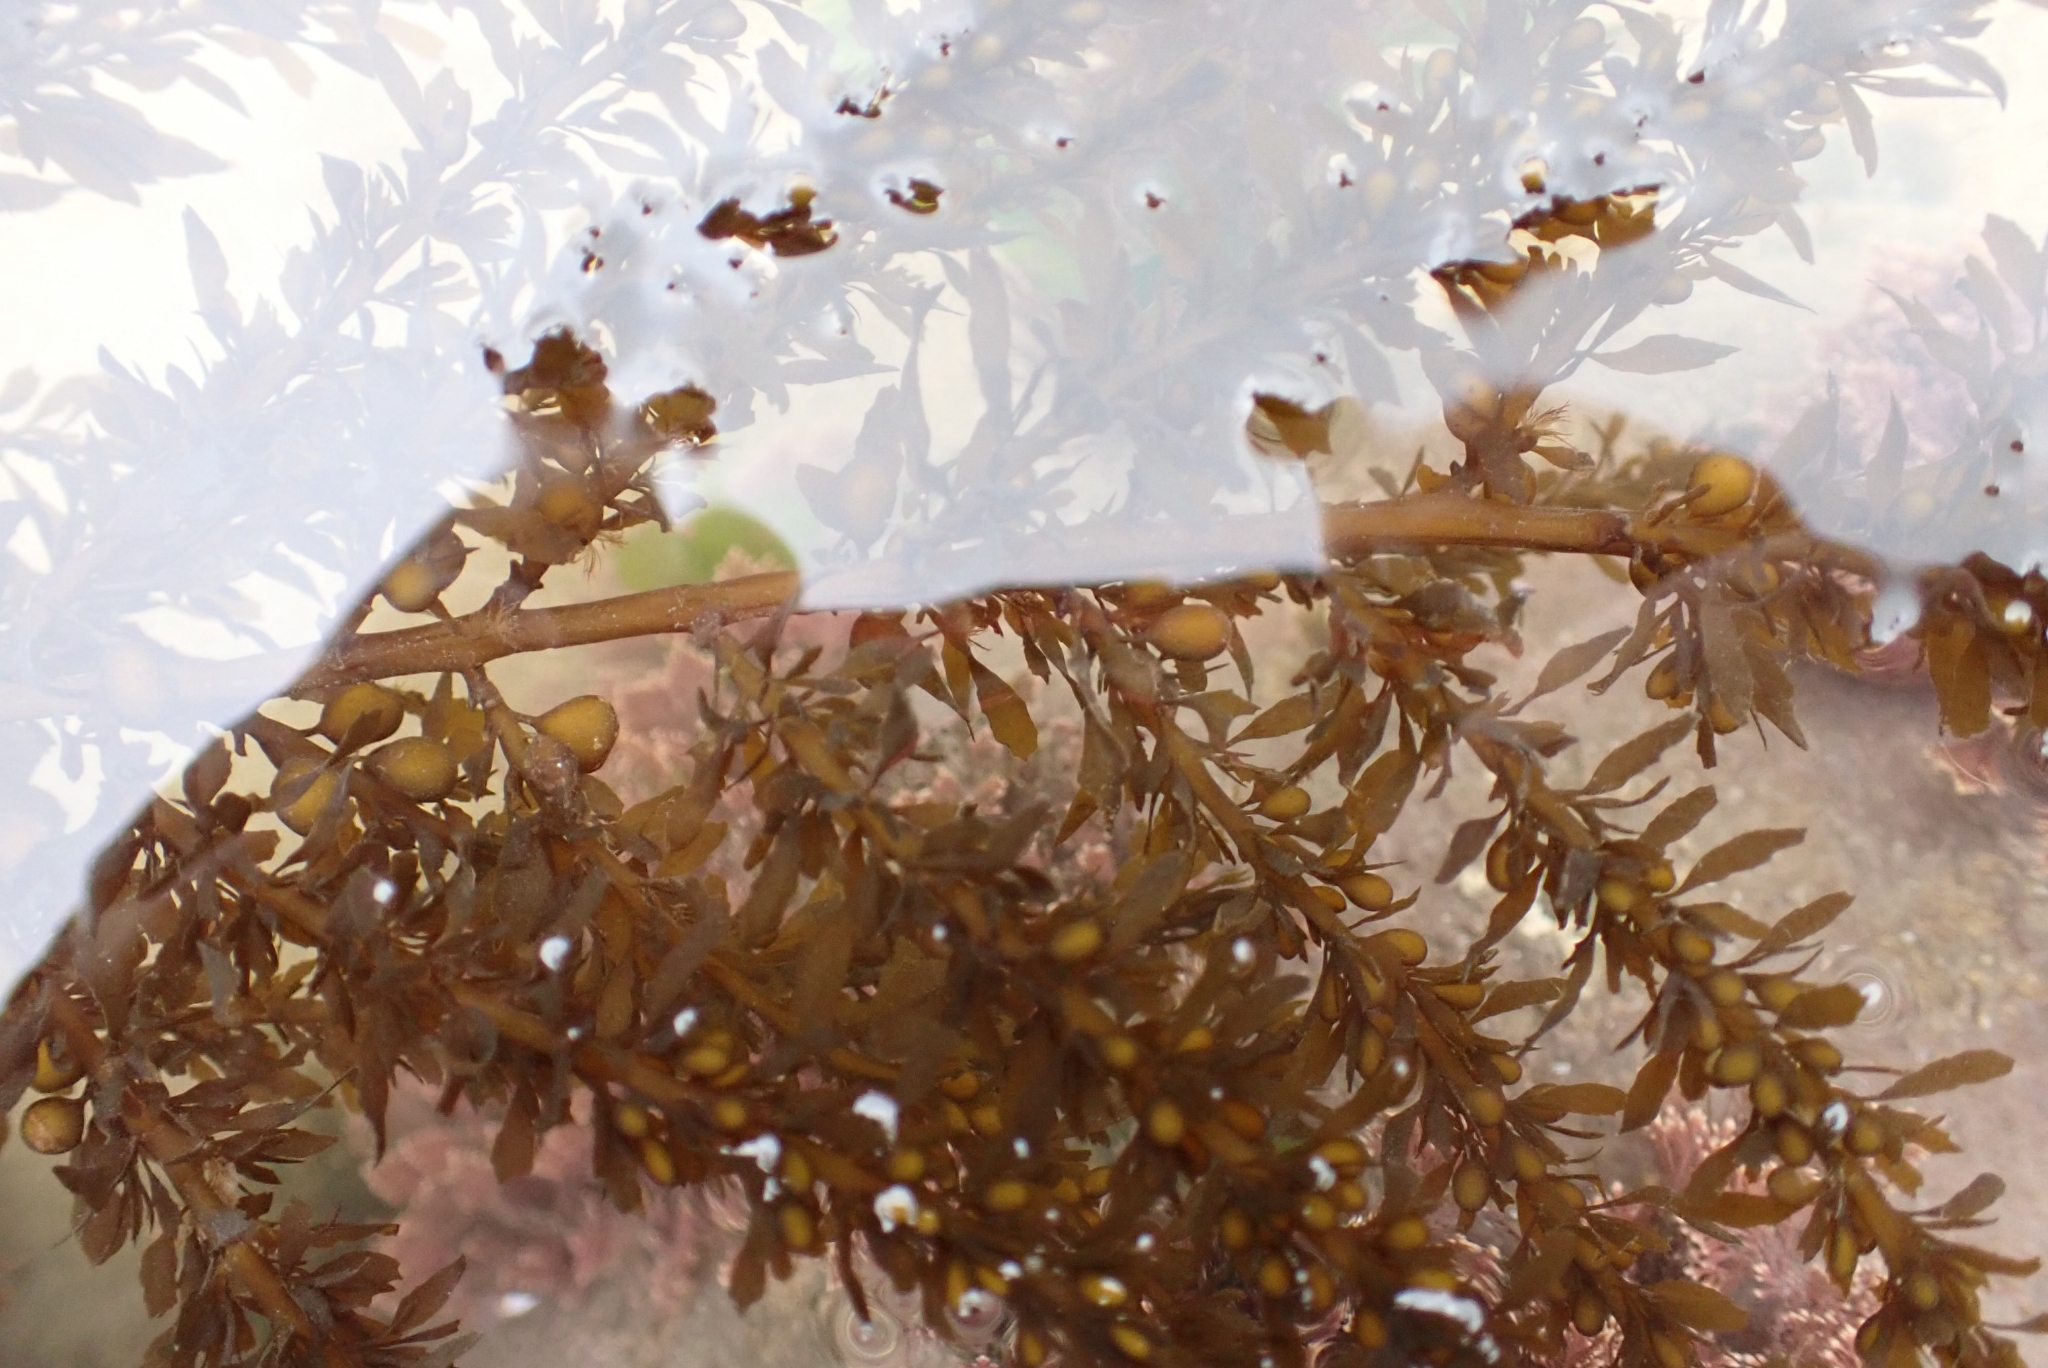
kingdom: Chromista
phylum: Ochrophyta
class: Phaeophyceae
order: Fucales
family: Sargassaceae
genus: Sargassum
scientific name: Sargassum muticum
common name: Japweed
